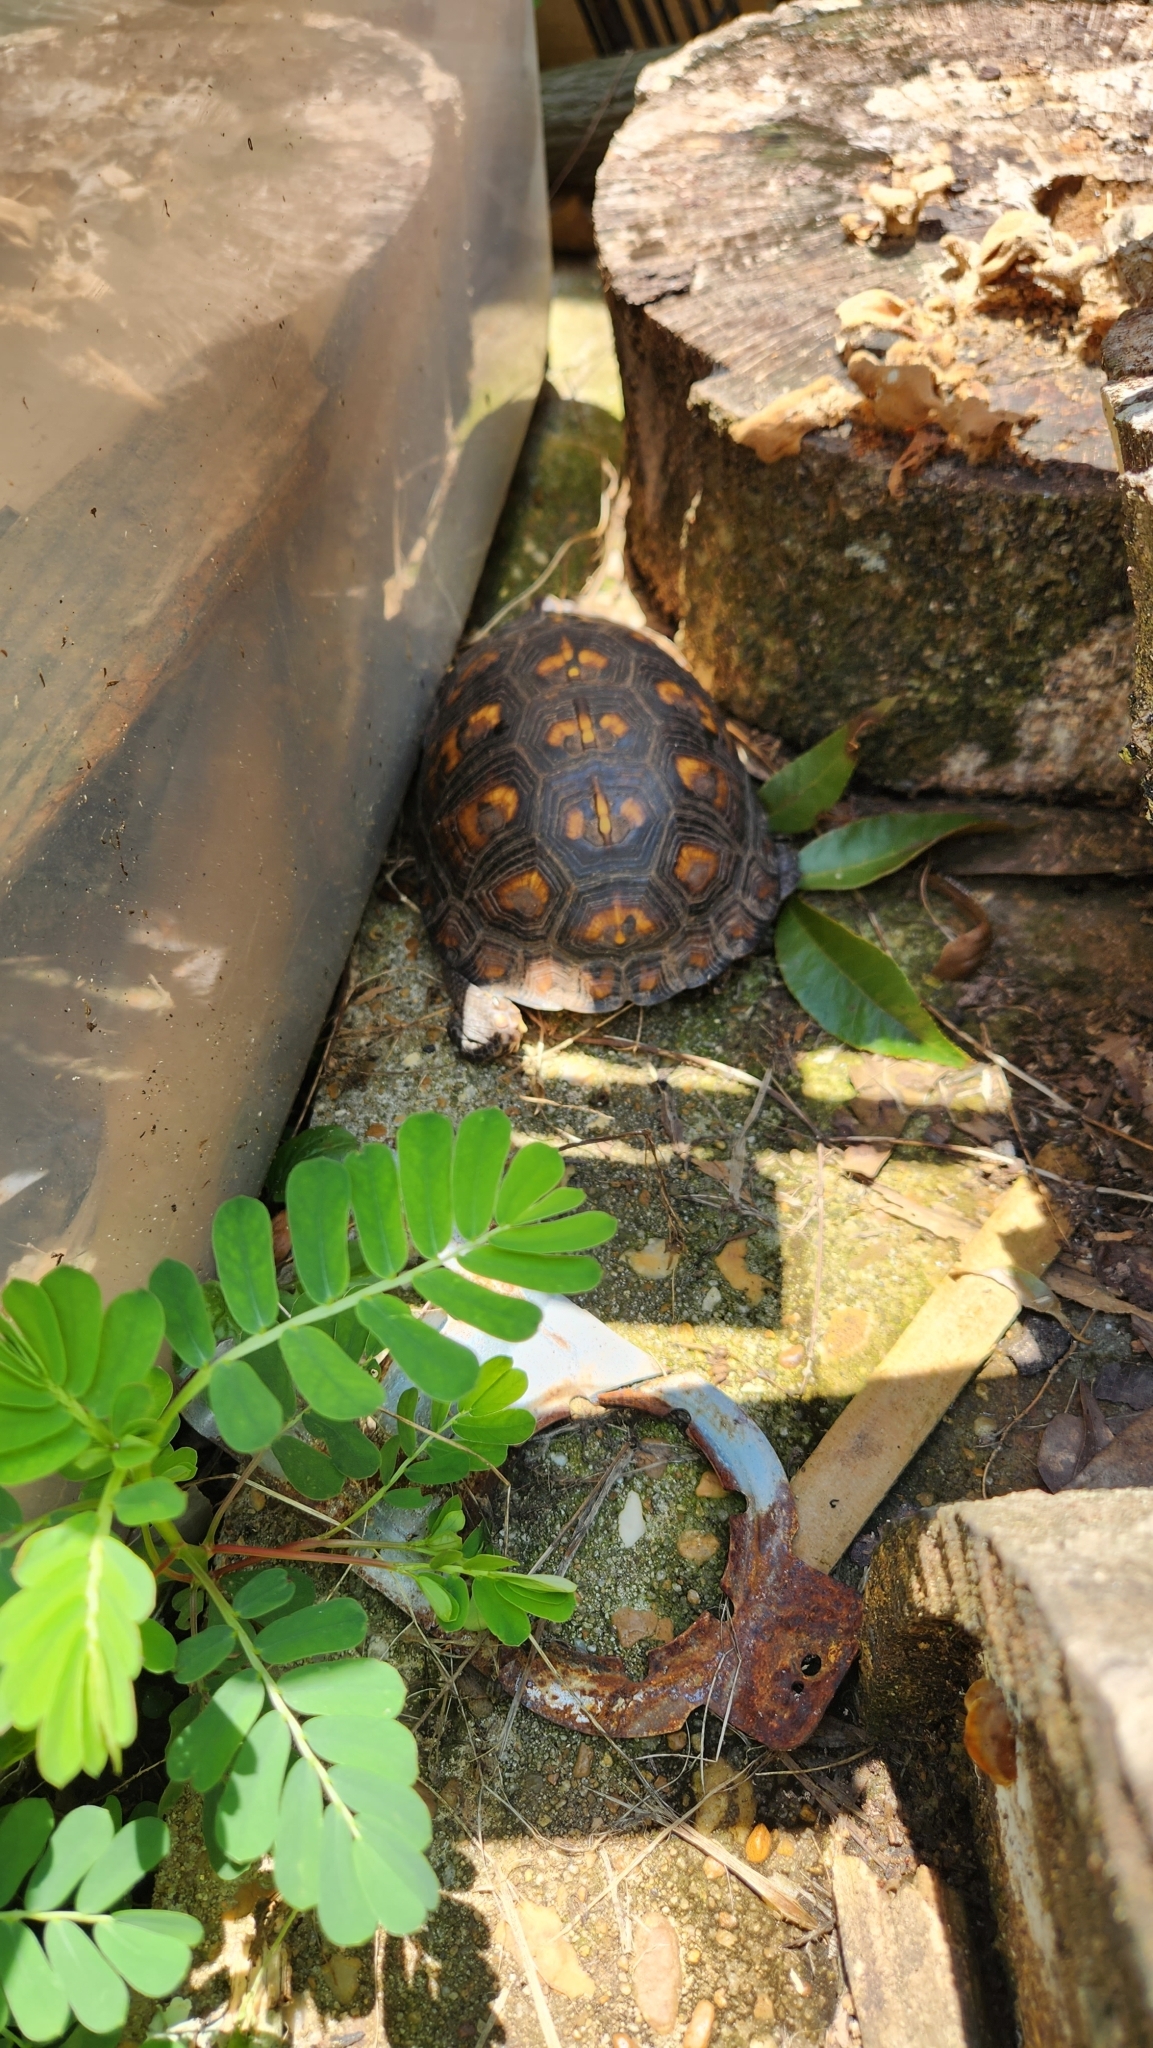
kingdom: Animalia
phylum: Chordata
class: Testudines
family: Emydidae
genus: Terrapene
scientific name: Terrapene carolina
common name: Common box turtle
